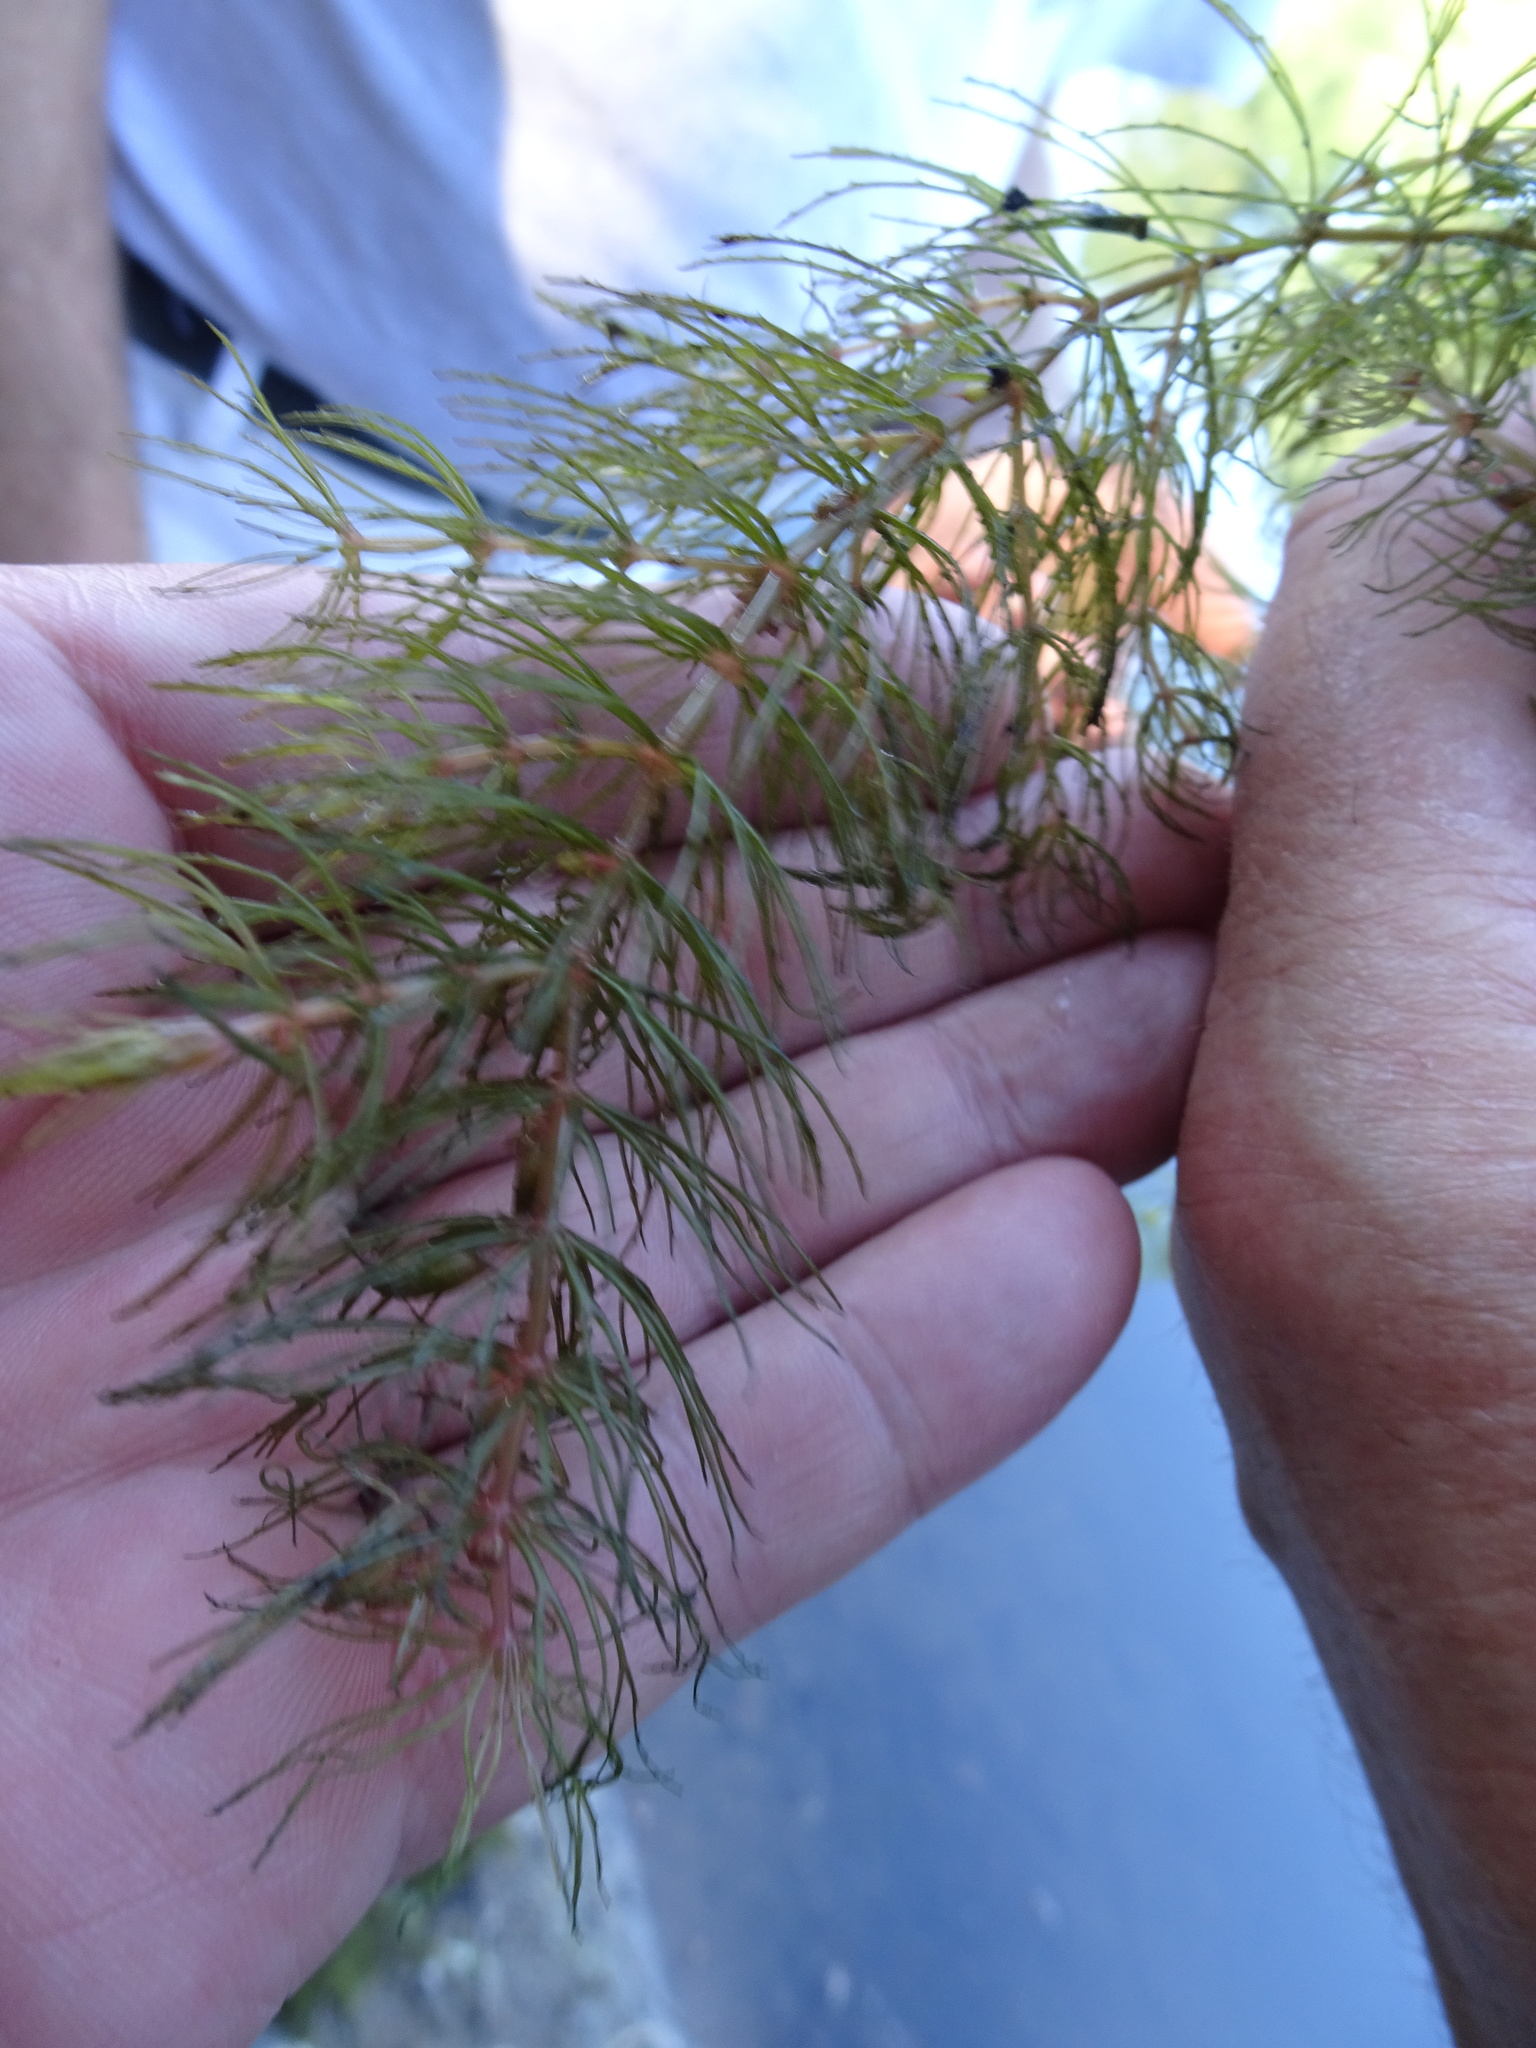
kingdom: Plantae
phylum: Tracheophyta
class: Magnoliopsida
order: Ceratophyllales
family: Ceratophyllaceae
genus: Ceratophyllum
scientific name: Ceratophyllum demersum
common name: Rigid hornwort
